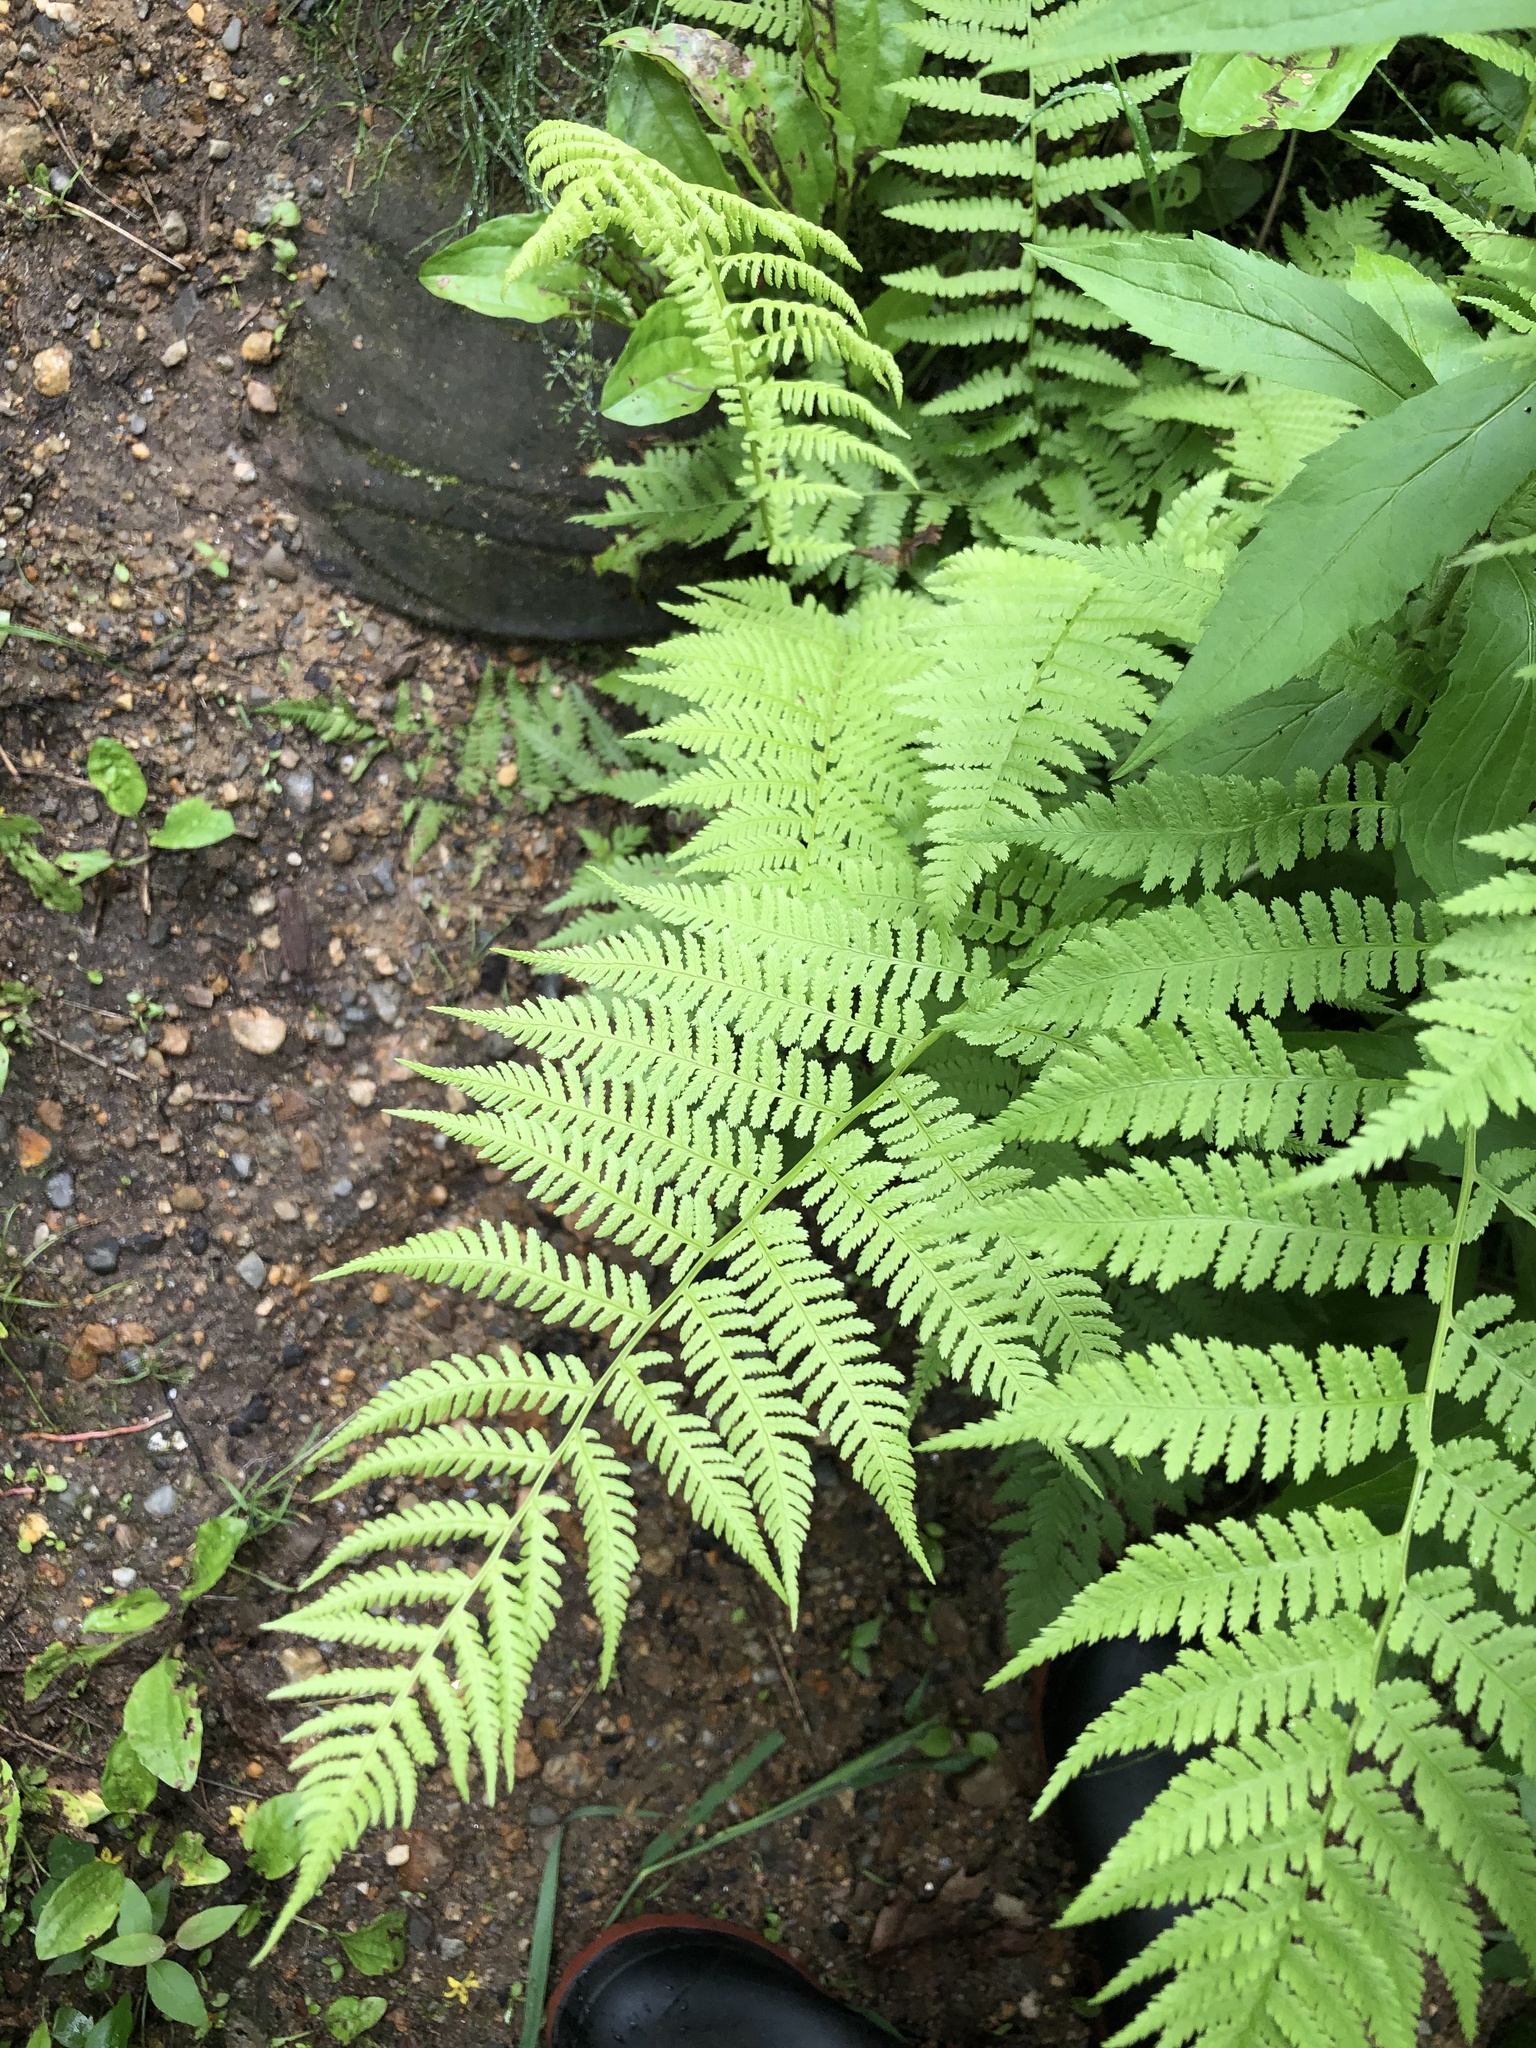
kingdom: Plantae
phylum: Tracheophyta
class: Polypodiopsida
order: Polypodiales
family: Athyriaceae
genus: Athyrium
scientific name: Athyrium angustum
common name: Northern lady fern
